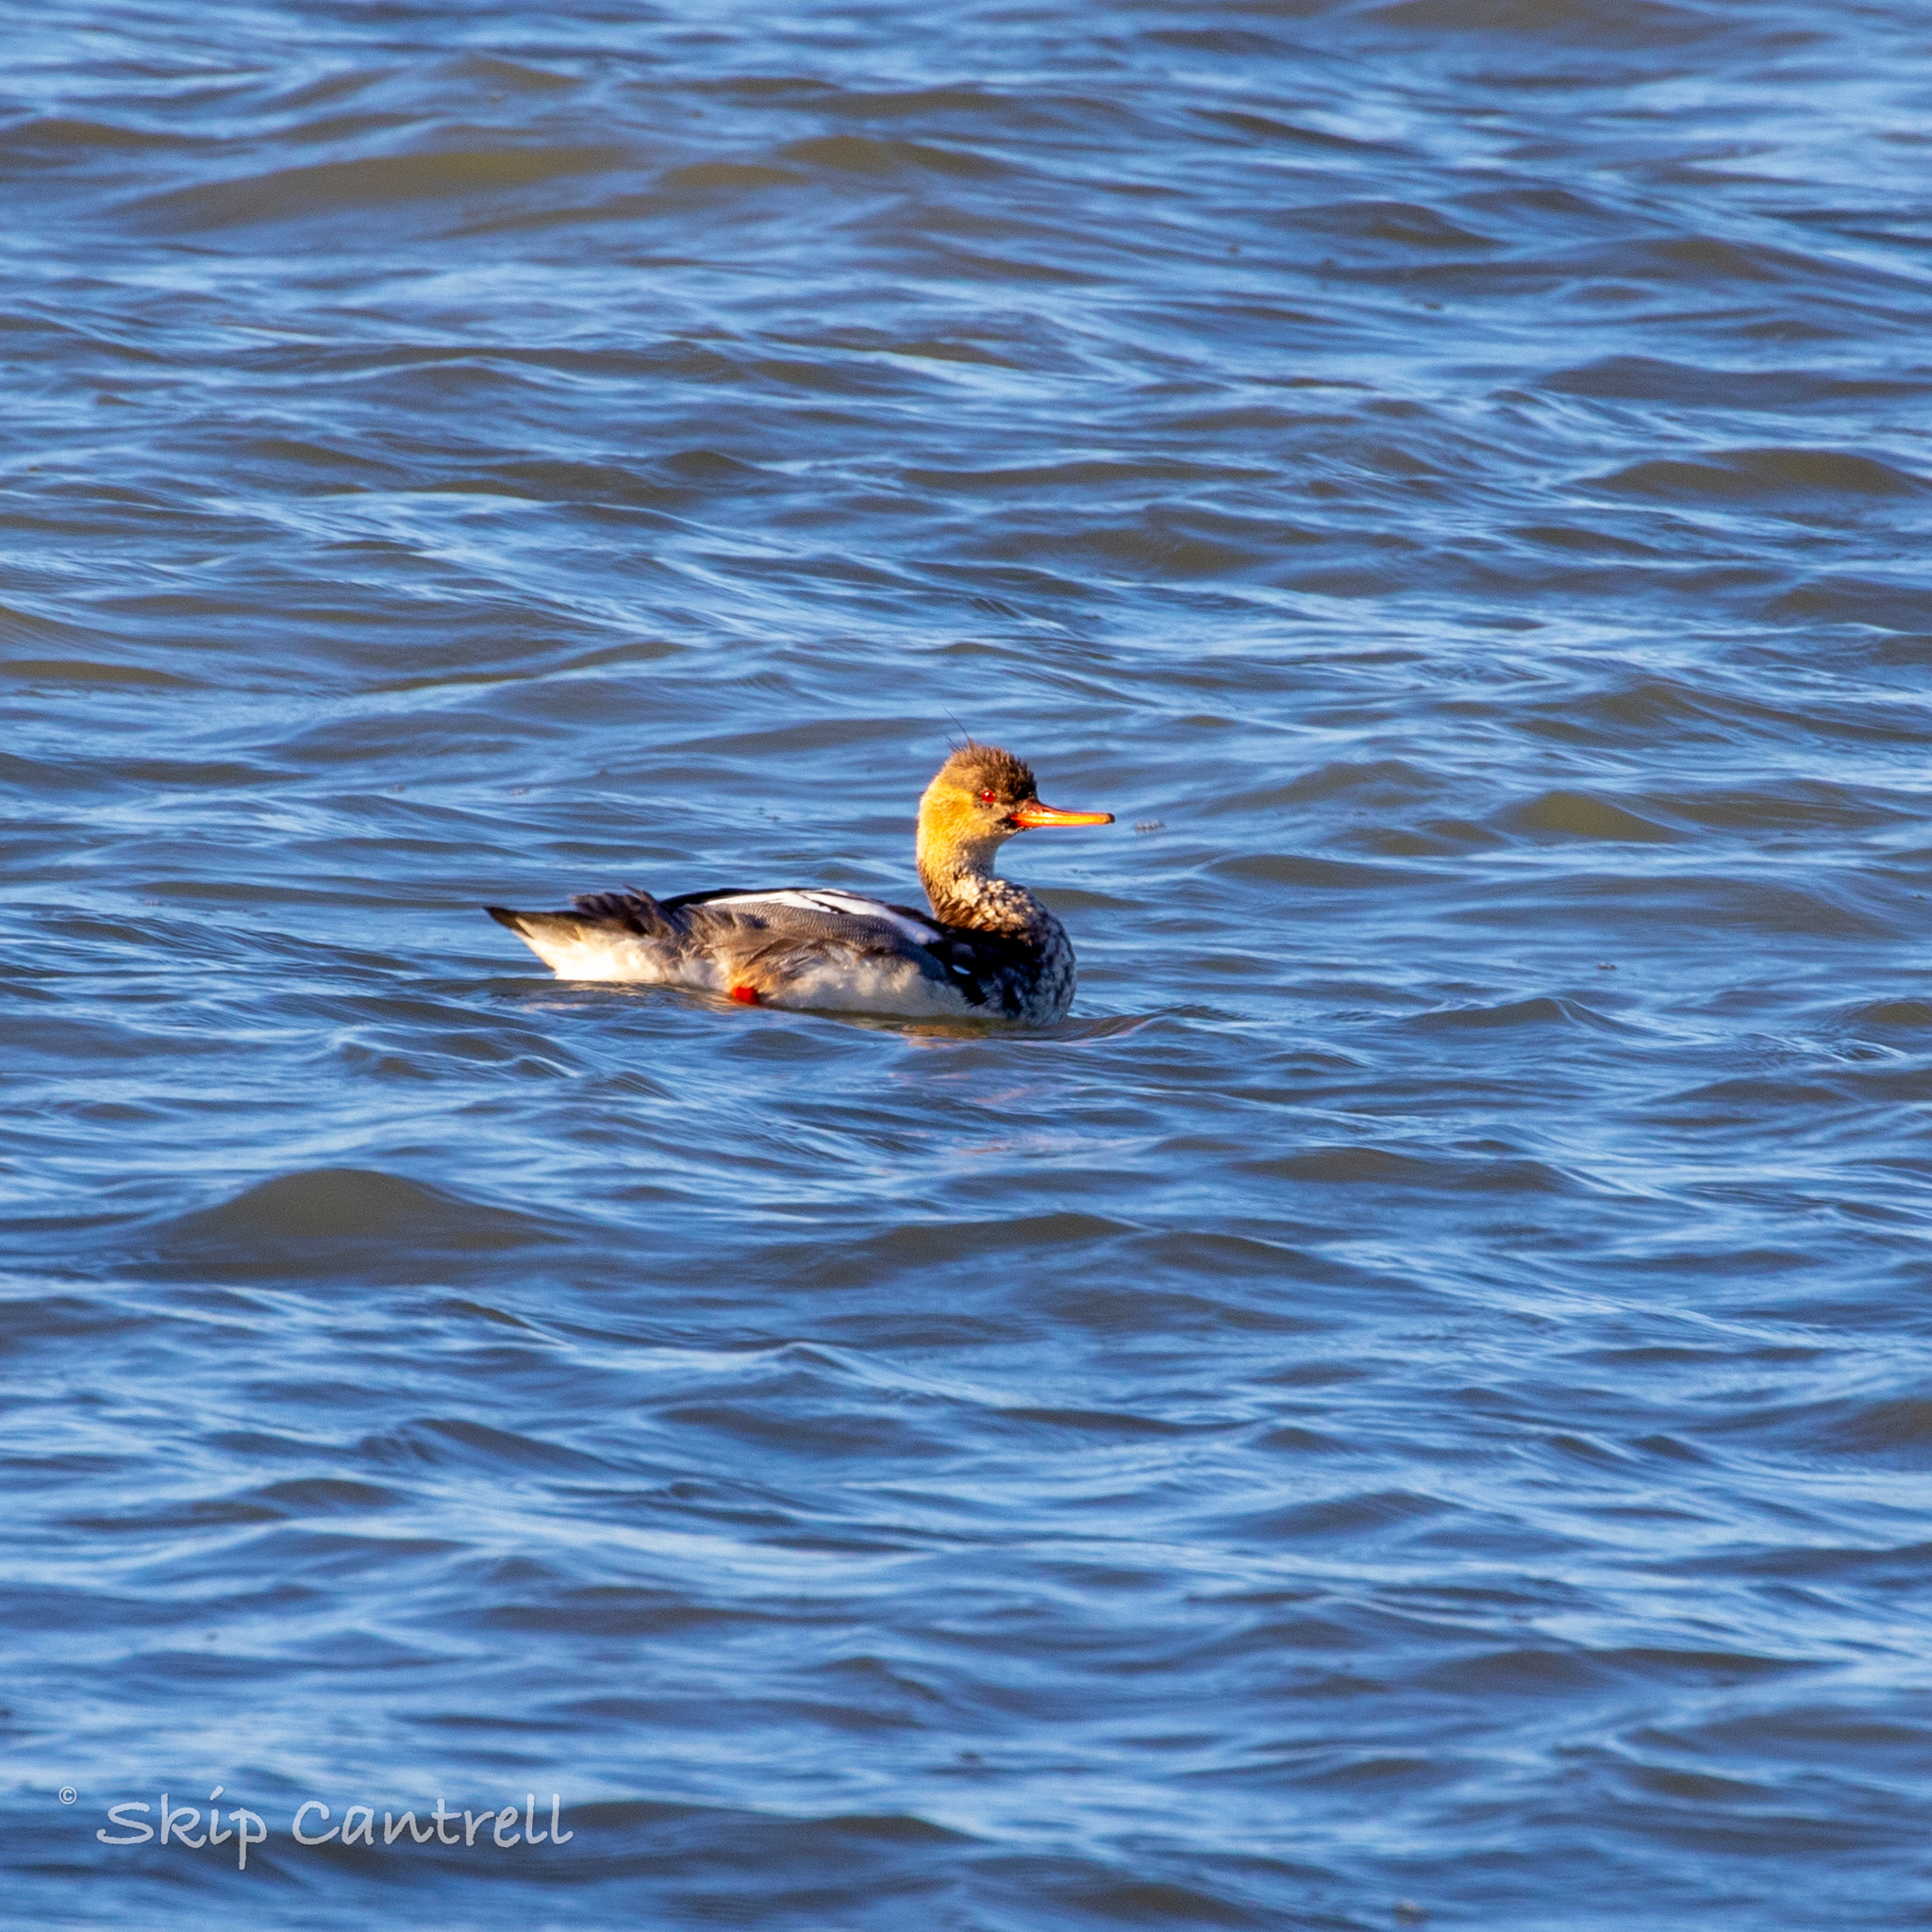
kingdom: Animalia
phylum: Chordata
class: Aves
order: Anseriformes
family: Anatidae
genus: Mergus
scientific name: Mergus serrator
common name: Red-breasted merganser
